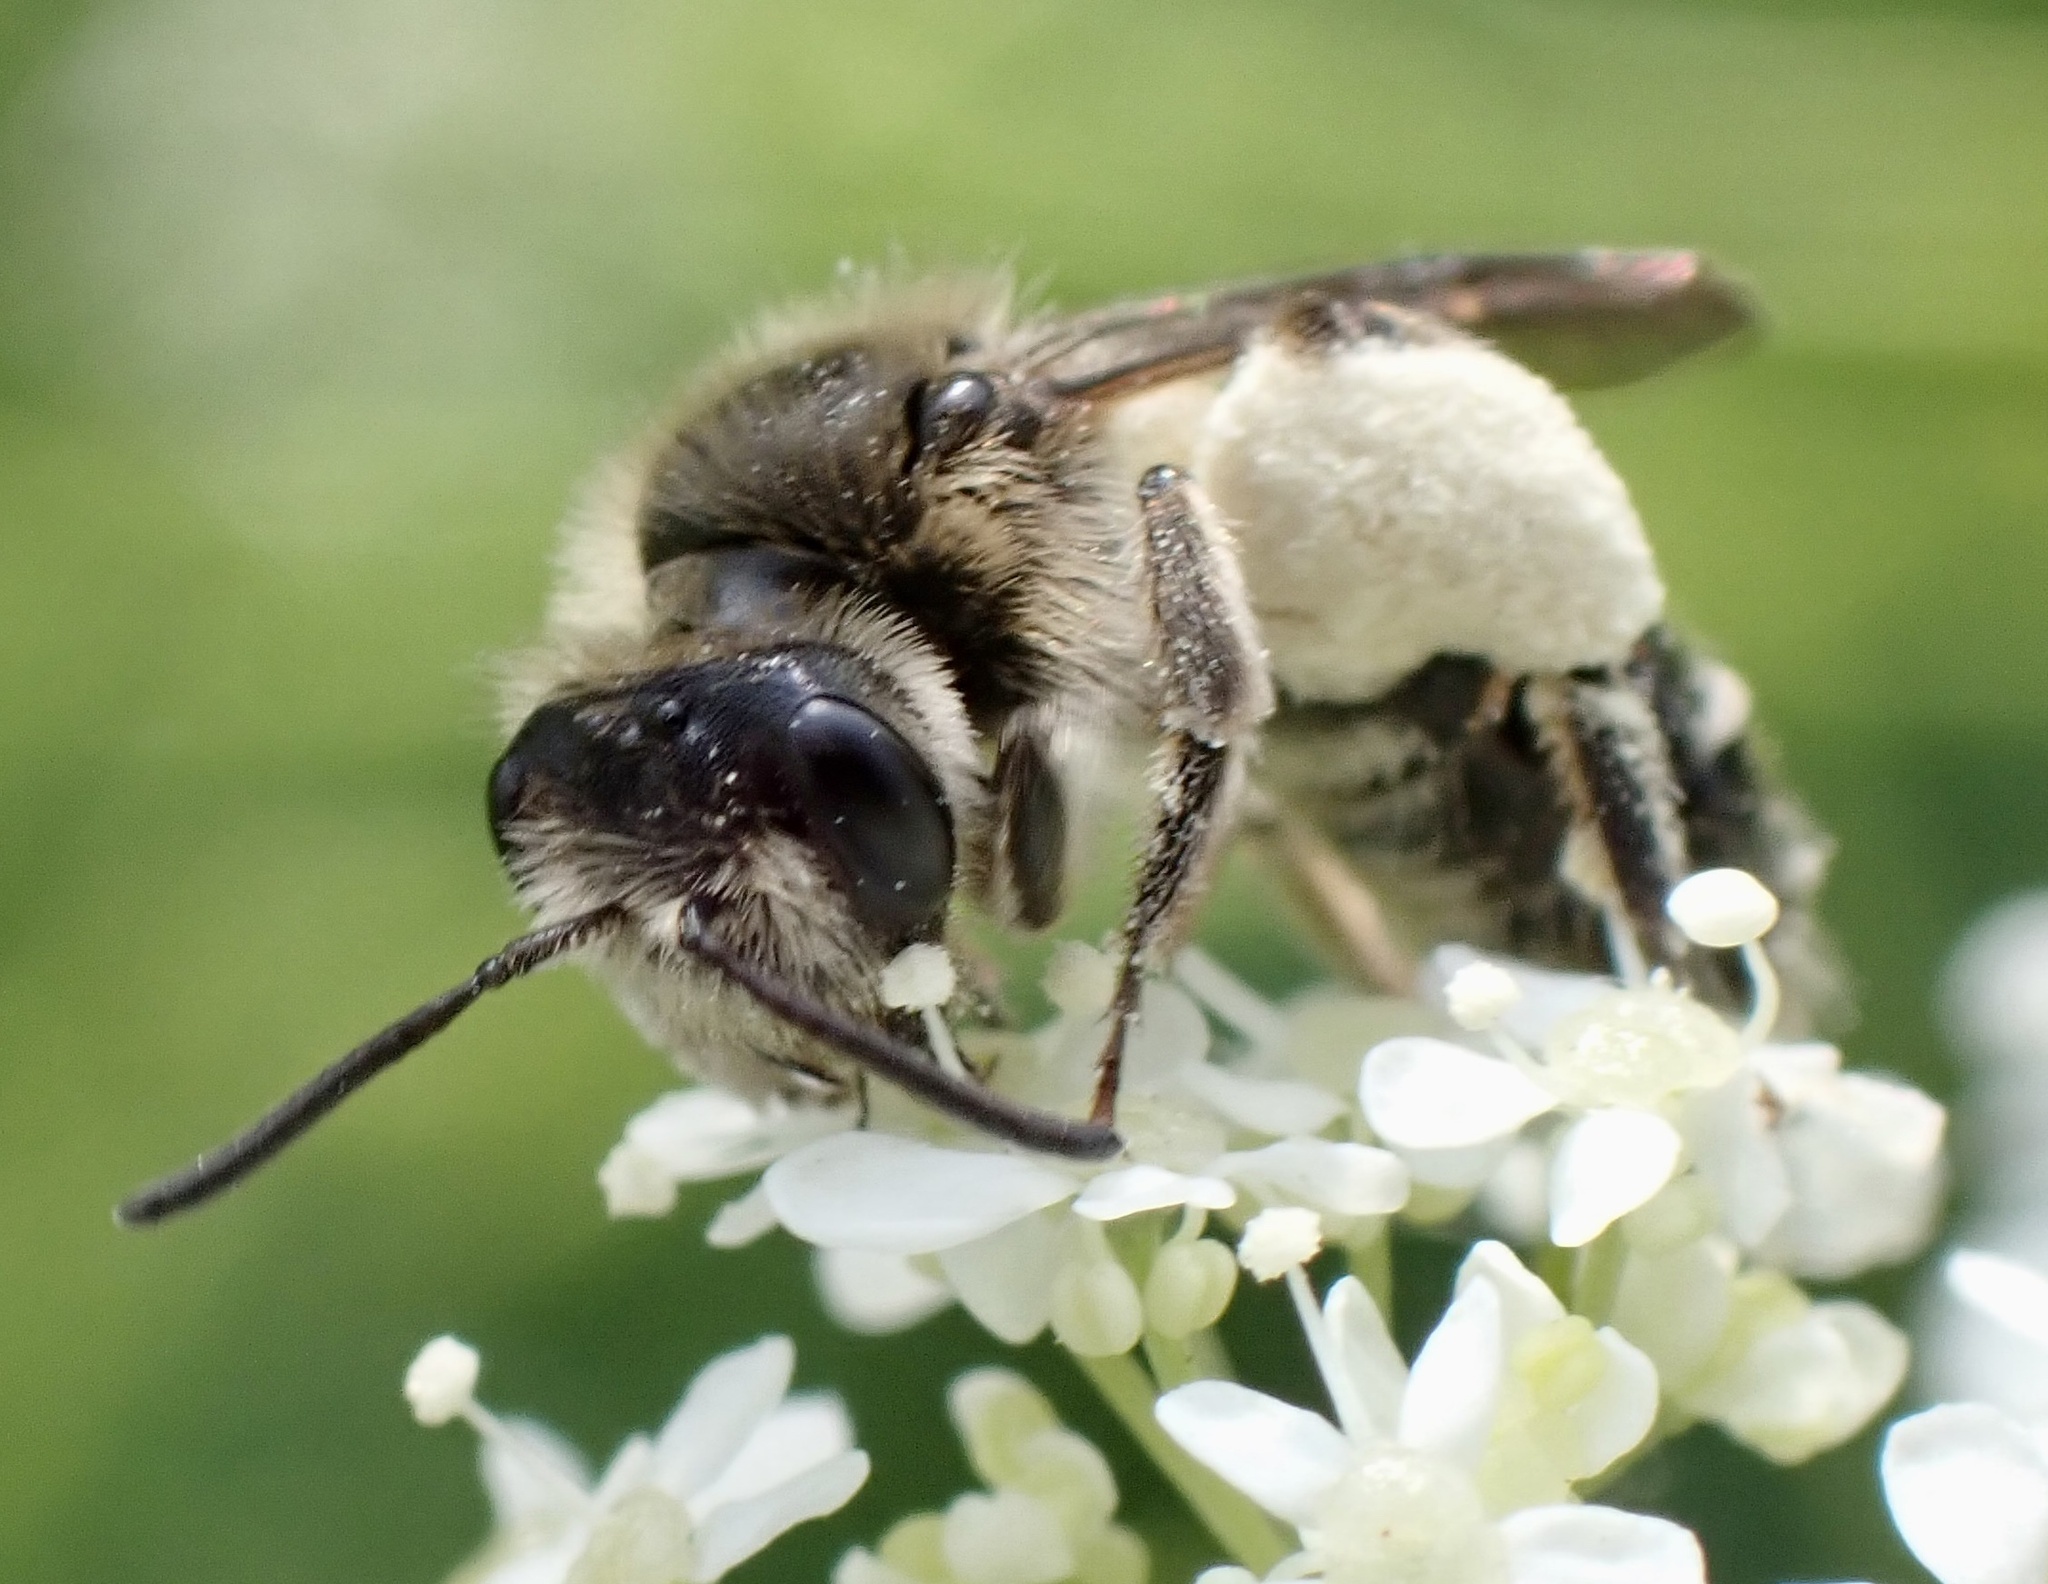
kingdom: Animalia
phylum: Arthropoda
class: Insecta
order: Hymenoptera
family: Andrenidae
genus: Andrena
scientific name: Andrena proxima
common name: Broad-faced mining bee
